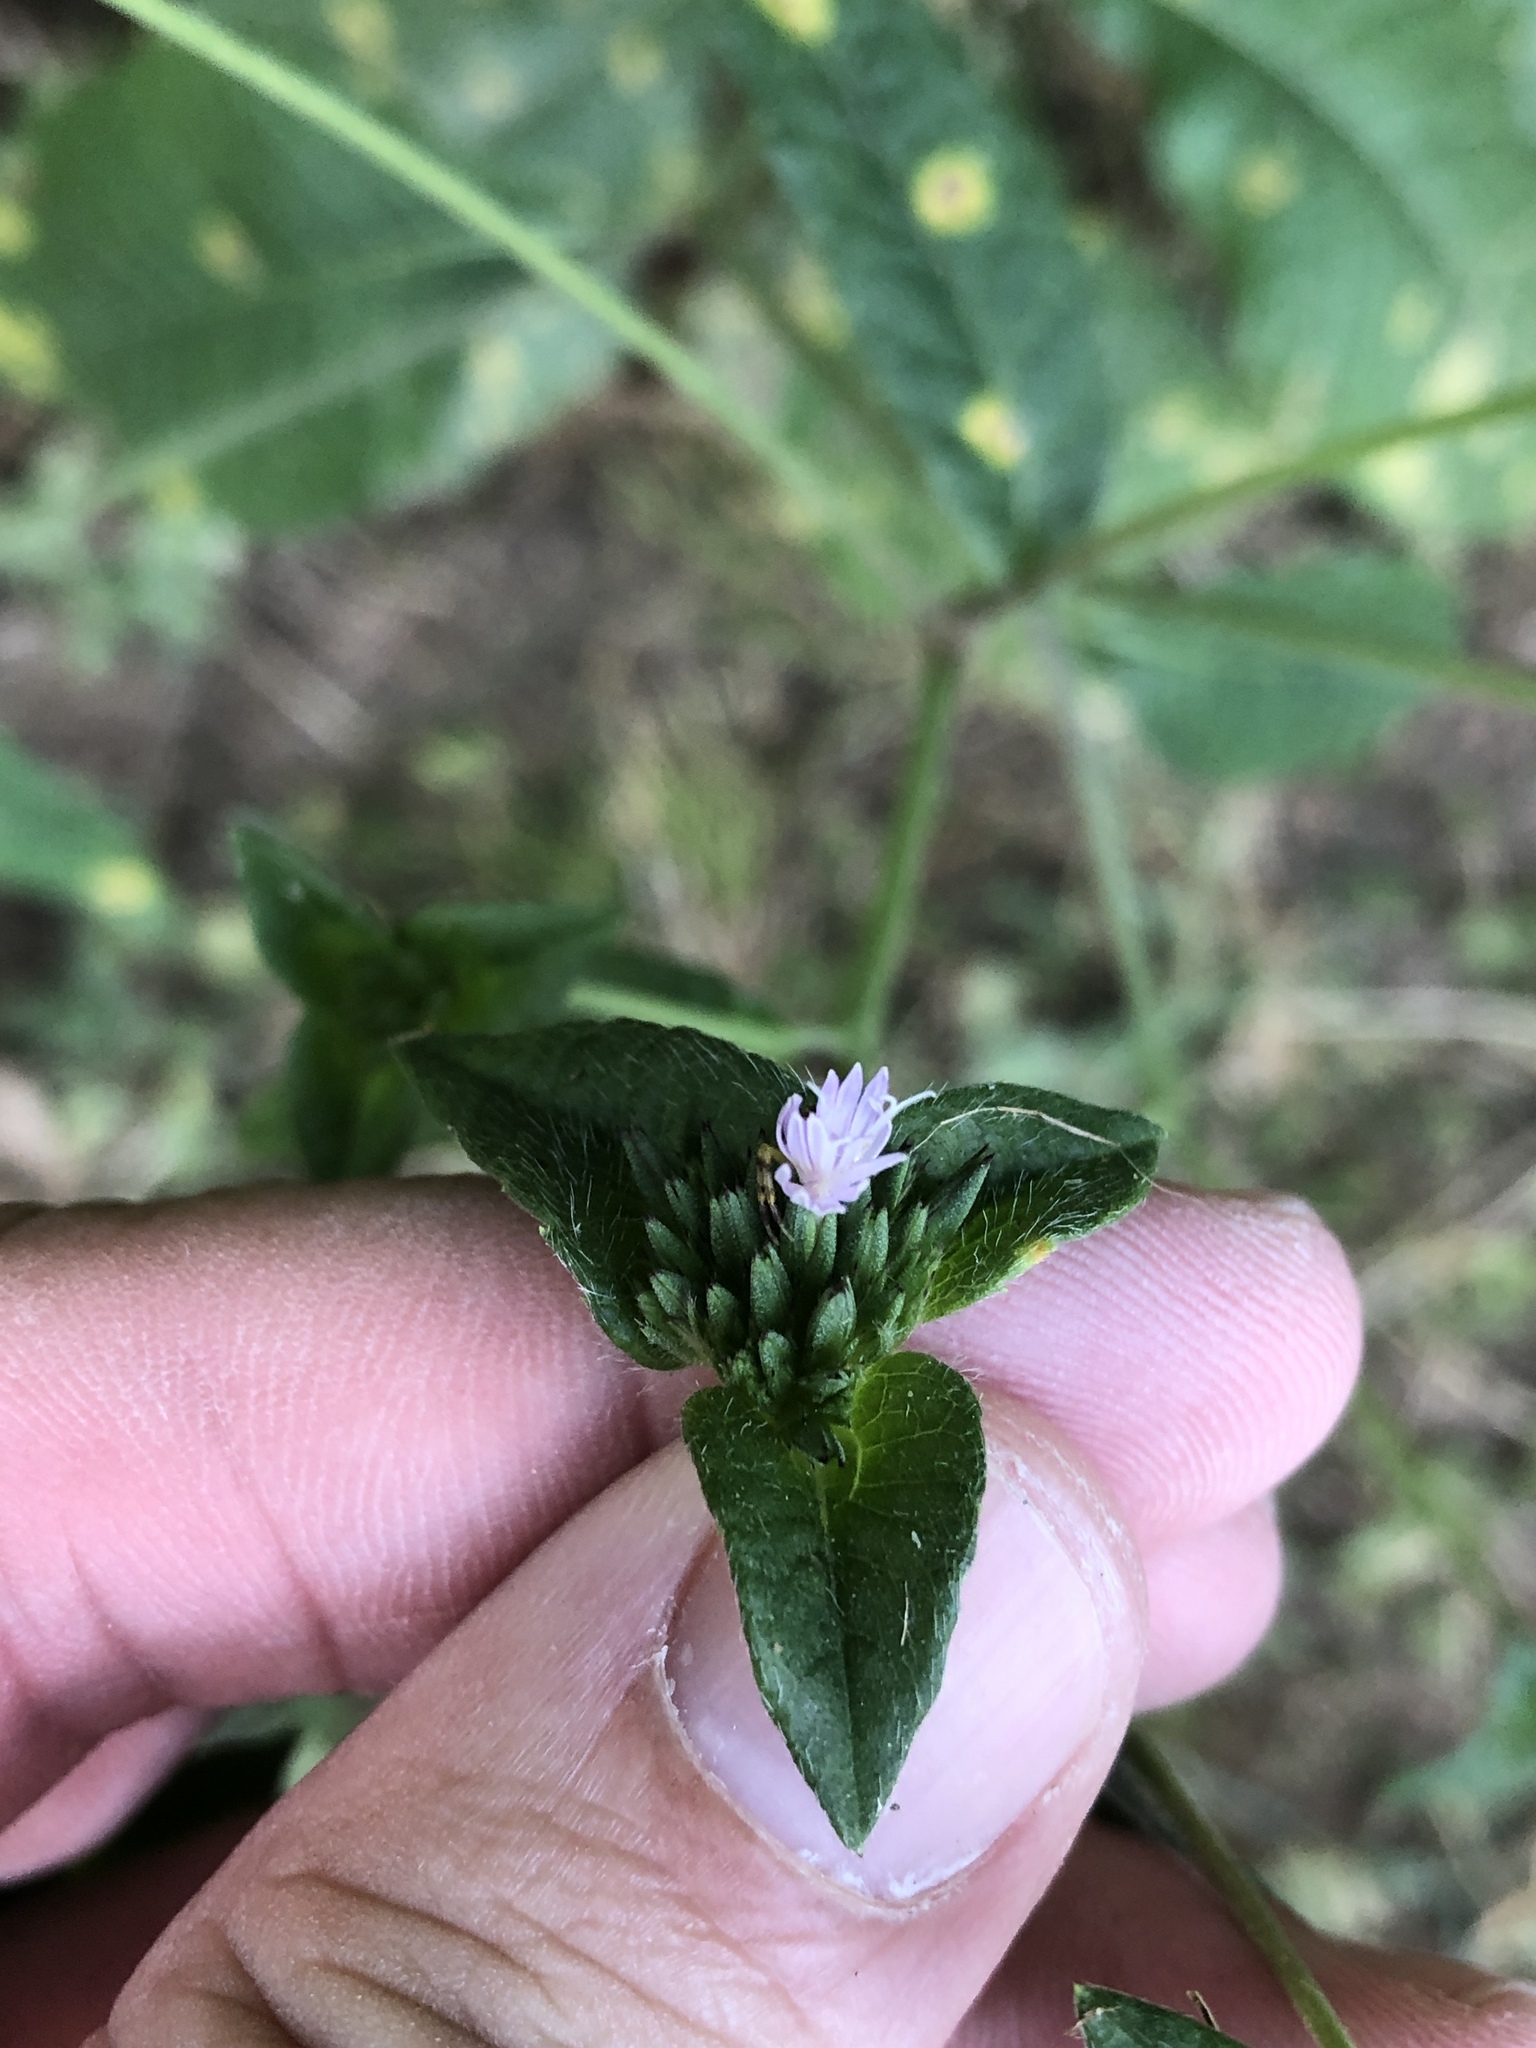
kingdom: Plantae
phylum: Tracheophyta
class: Magnoliopsida
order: Asterales
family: Asteraceae
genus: Elephantopus
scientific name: Elephantopus carolinianus
